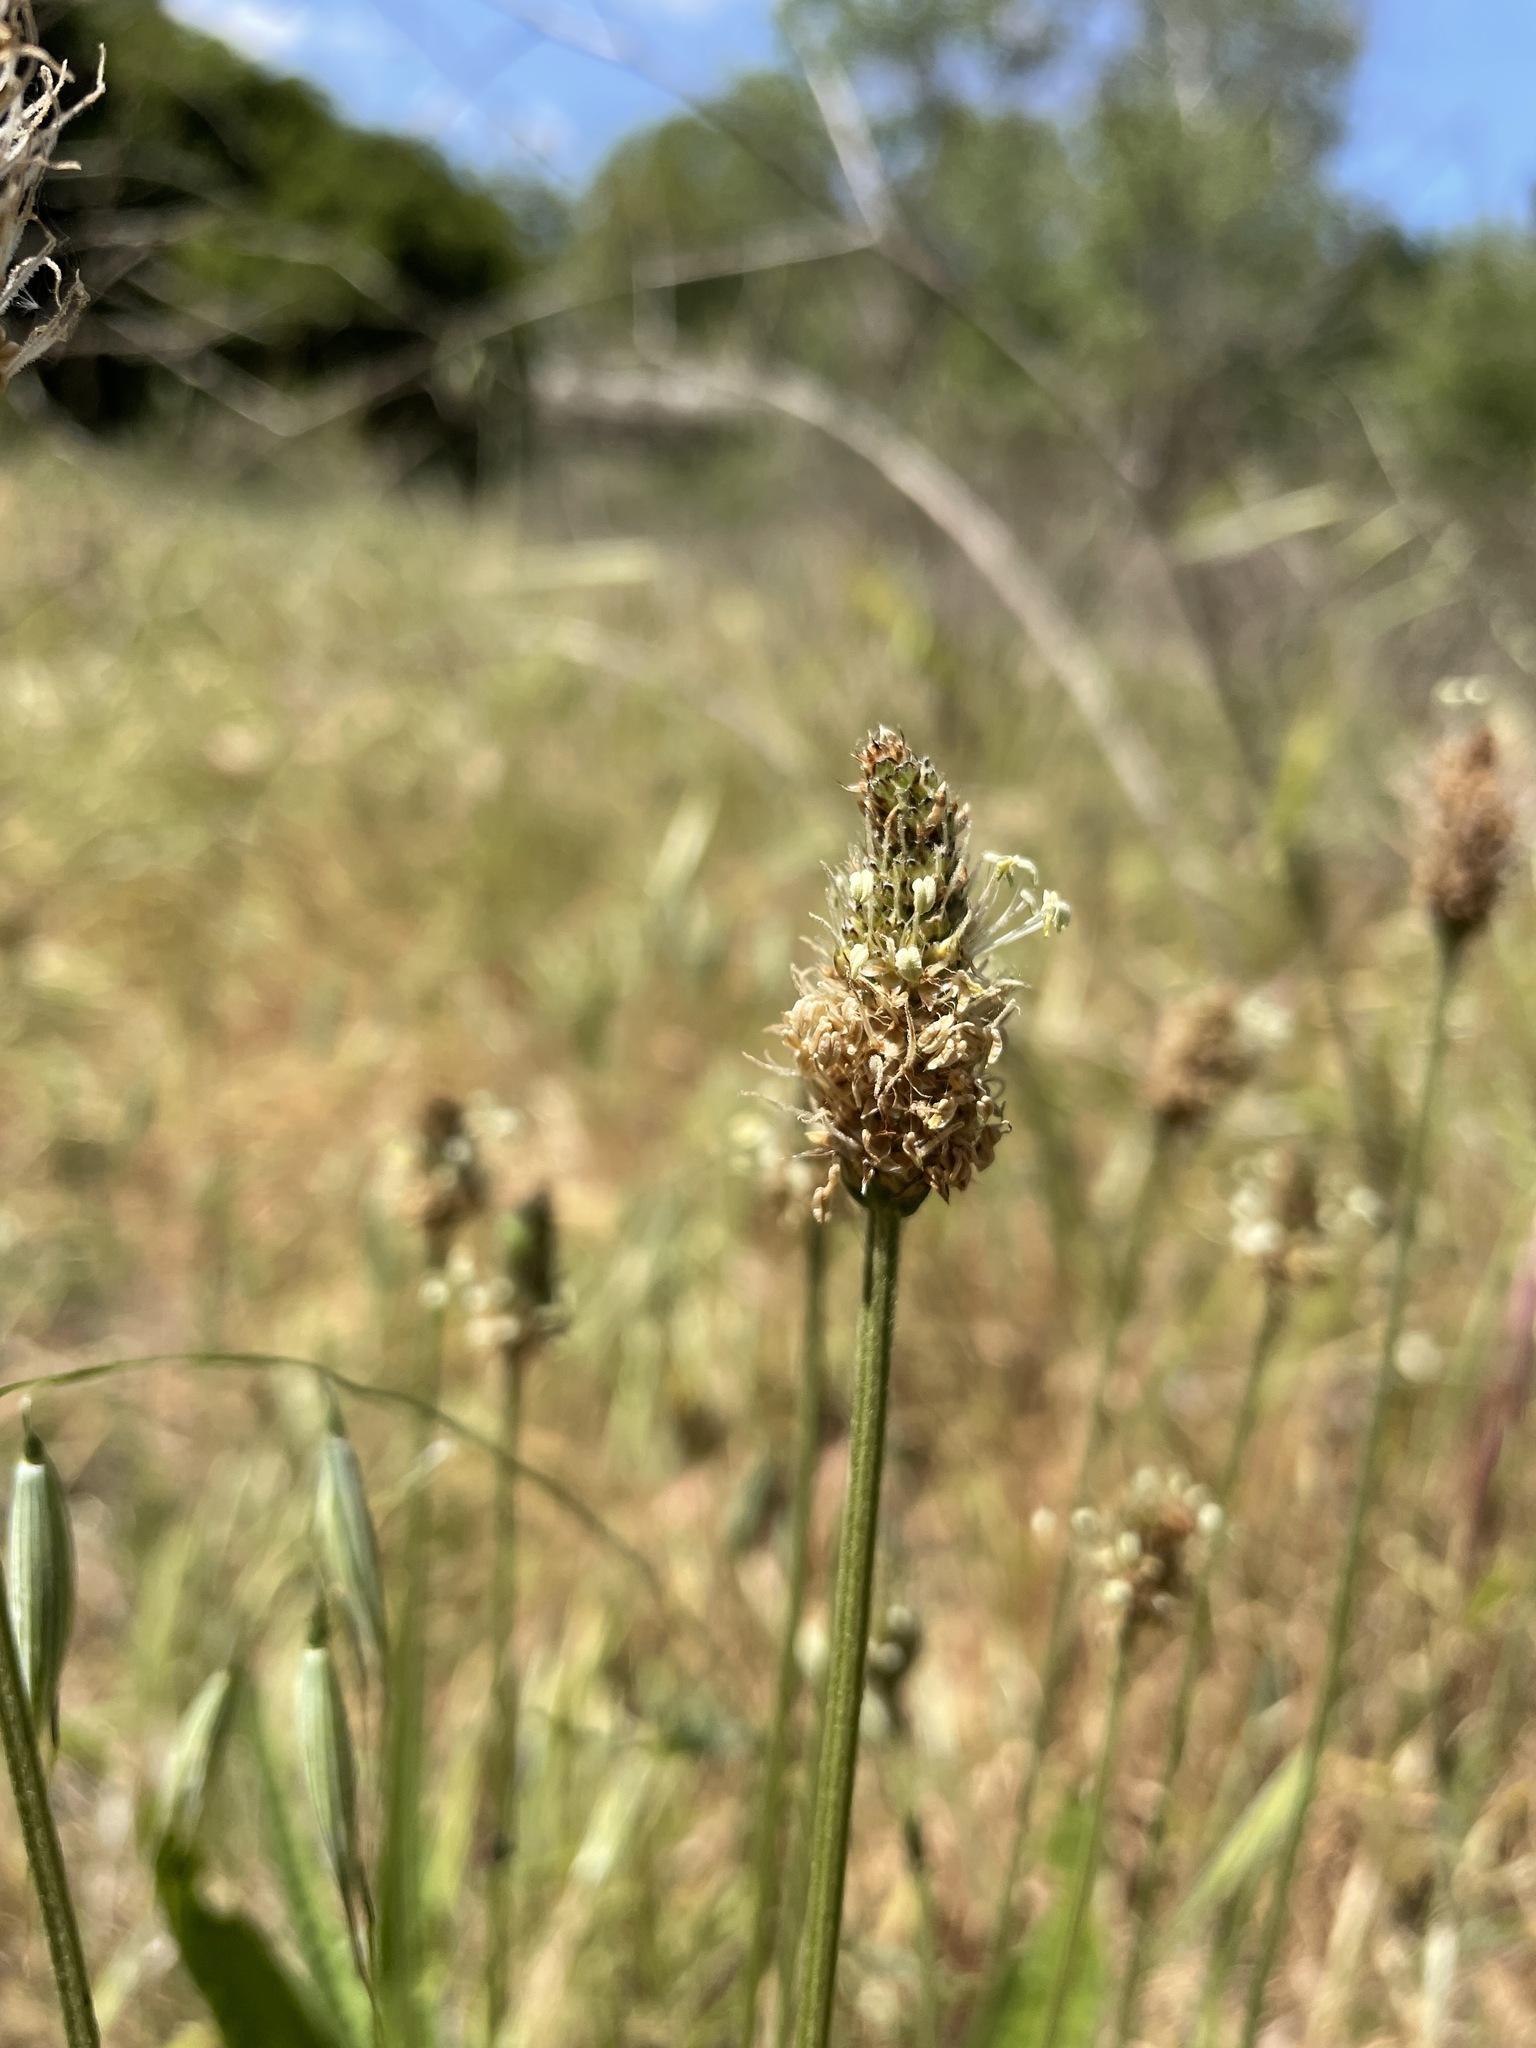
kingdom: Plantae
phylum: Tracheophyta
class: Magnoliopsida
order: Lamiales
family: Plantaginaceae
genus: Plantago
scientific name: Plantago lanceolata
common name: Ribwort plantain
